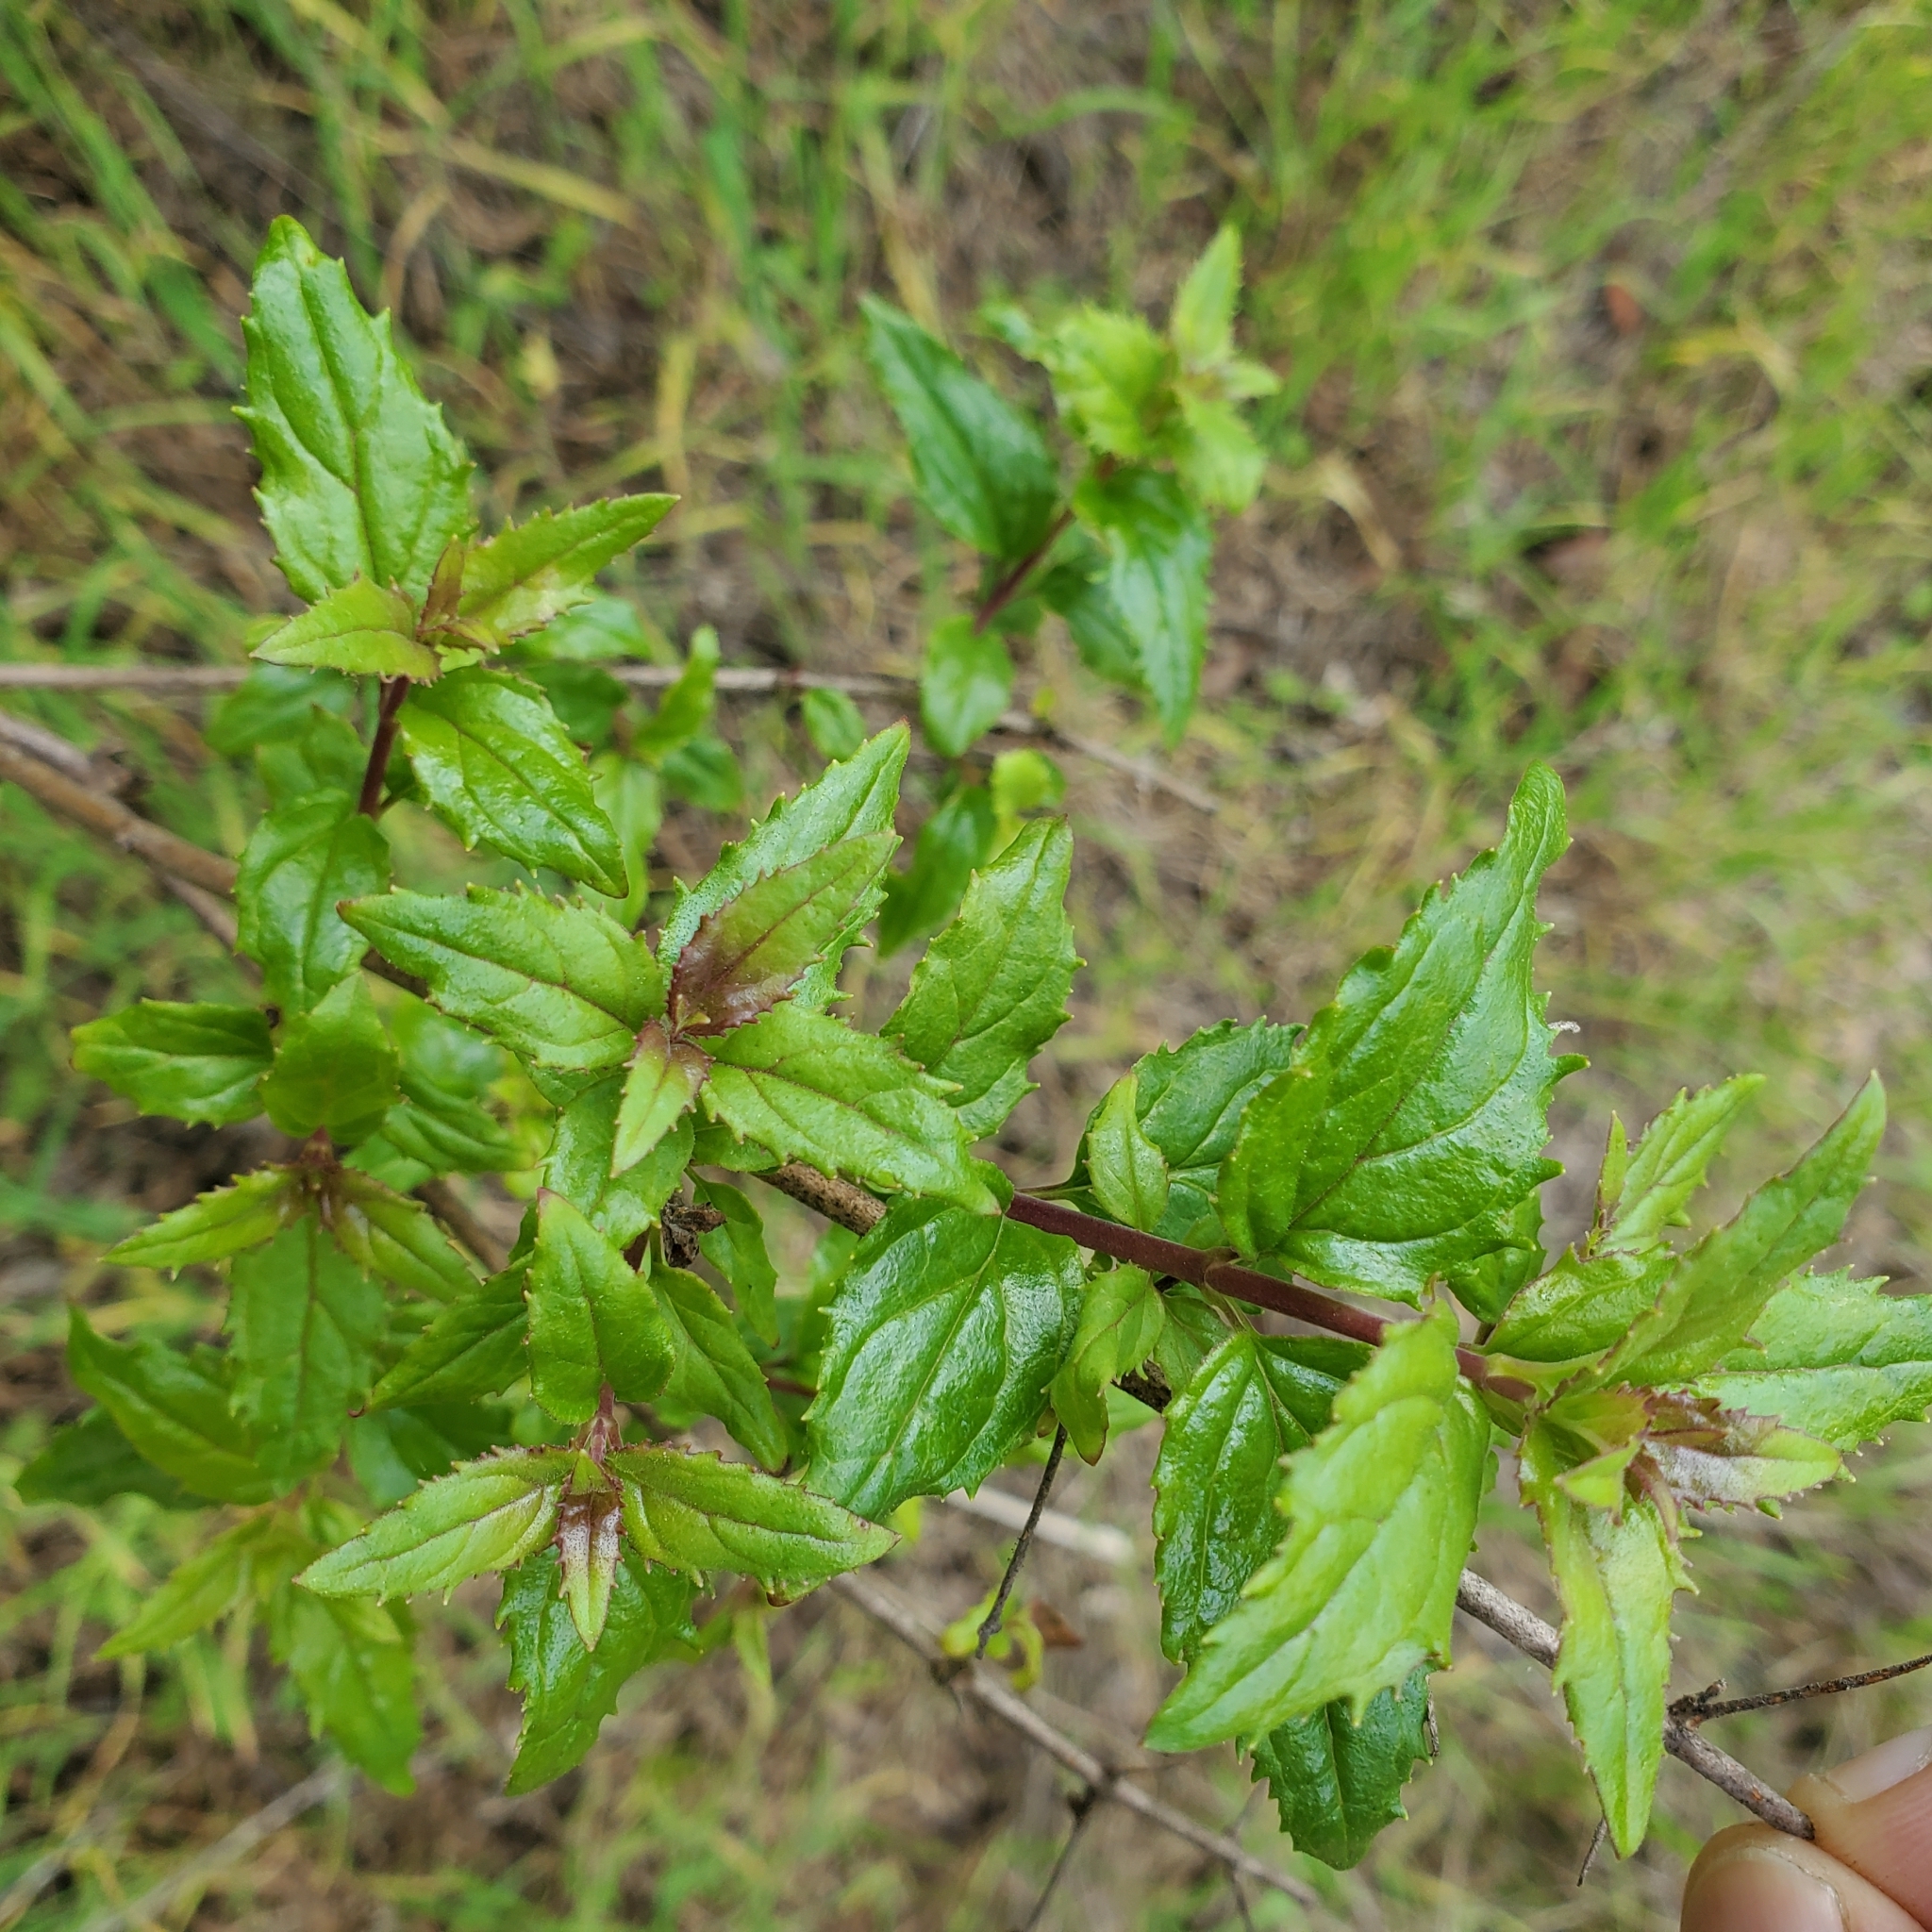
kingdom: Plantae
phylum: Tracheophyta
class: Magnoliopsida
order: Lamiales
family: Plantaginaceae
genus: Keckiella
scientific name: Keckiella cordifolia
